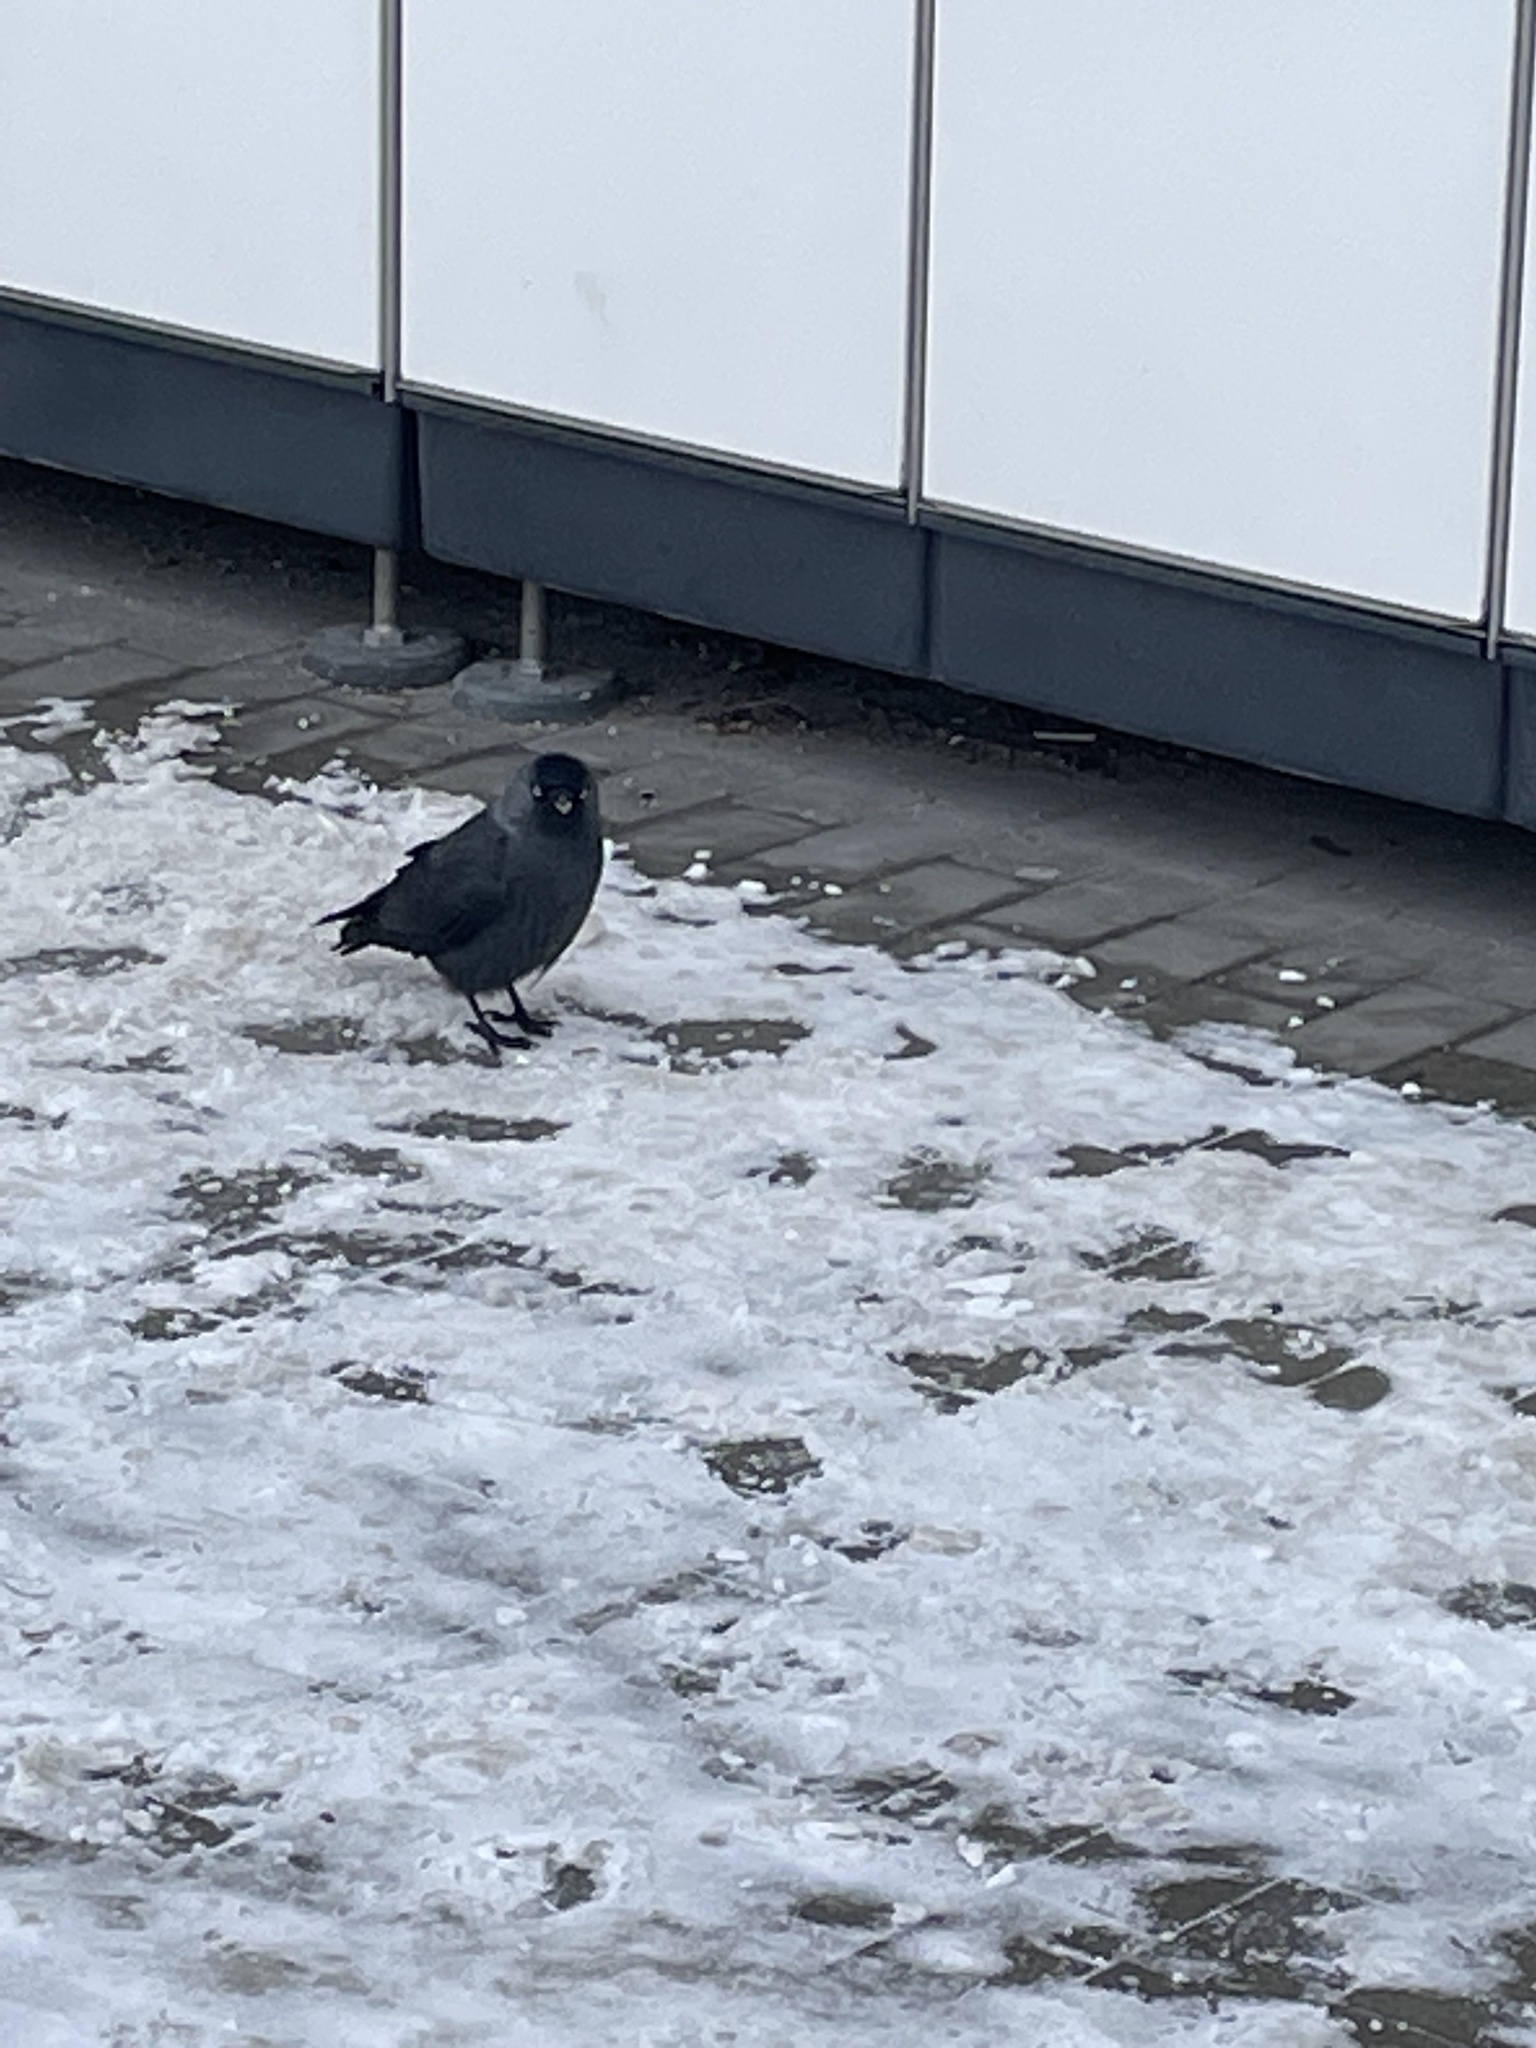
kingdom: Animalia
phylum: Chordata
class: Aves
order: Passeriformes
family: Corvidae
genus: Coloeus
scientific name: Coloeus monedula
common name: Western jackdaw
